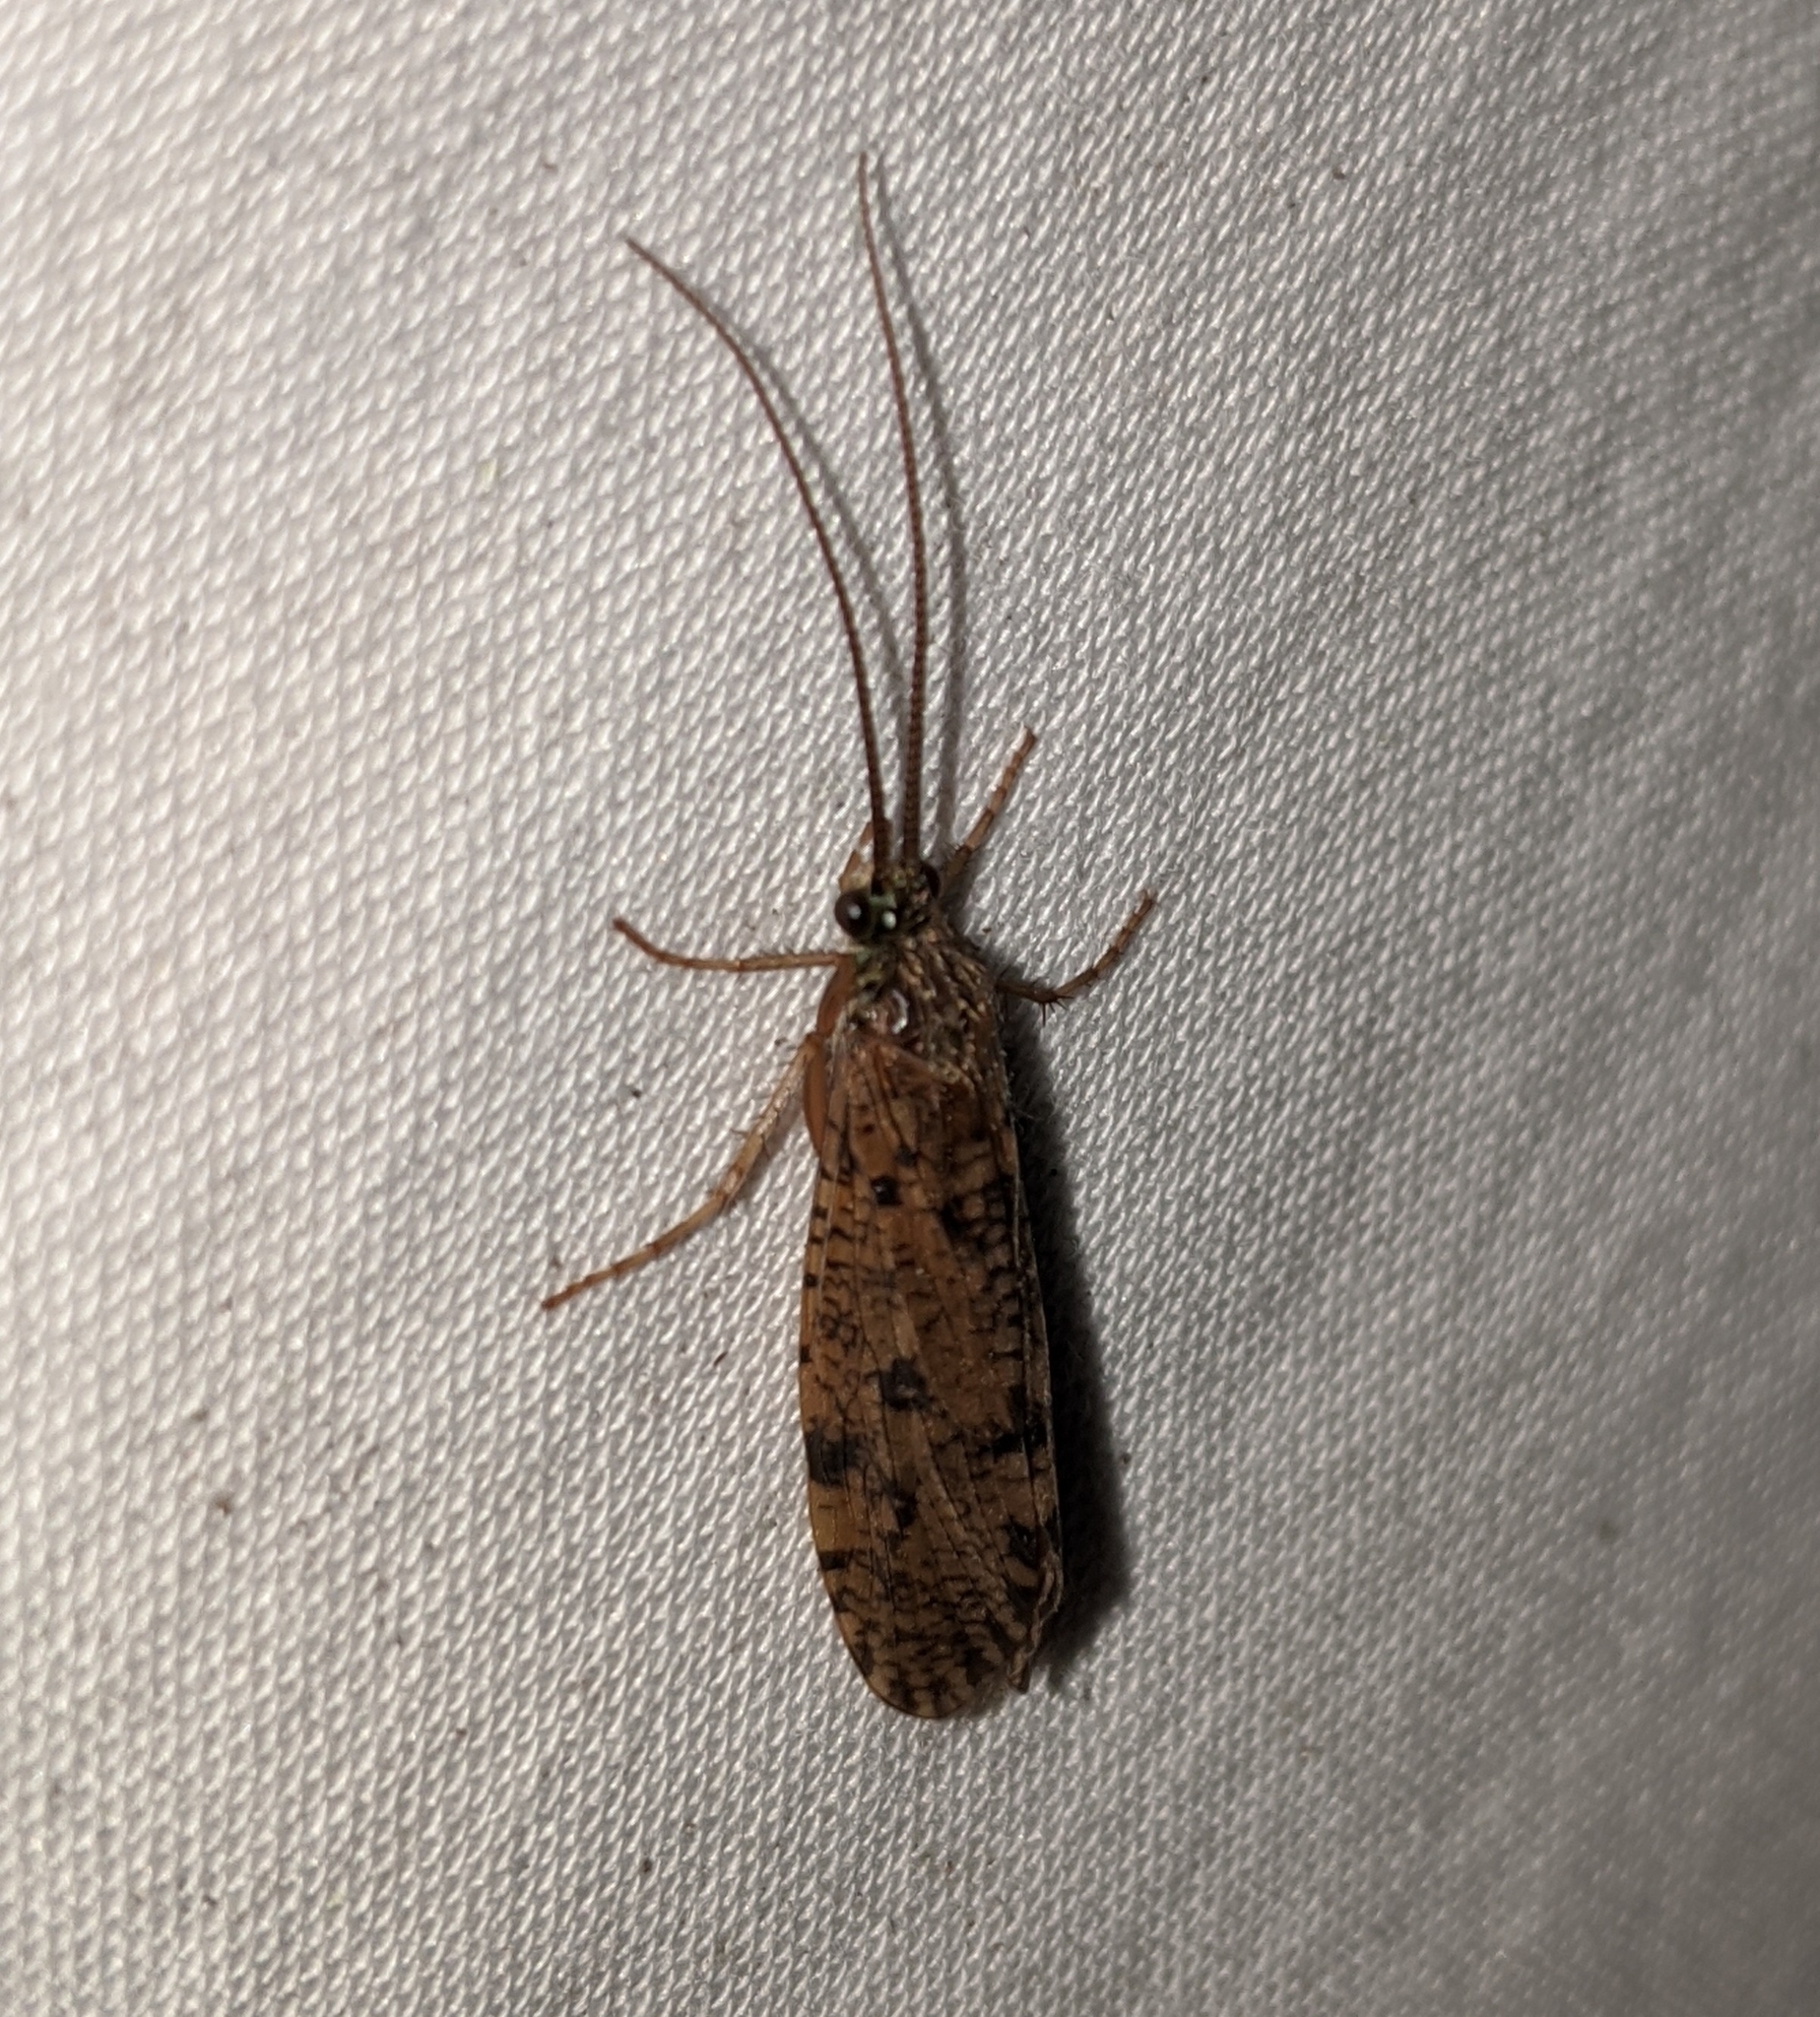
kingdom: Animalia
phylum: Arthropoda
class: Insecta
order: Trichoptera
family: Phryganeidae
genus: Banksiola
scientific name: Banksiola crotchi
